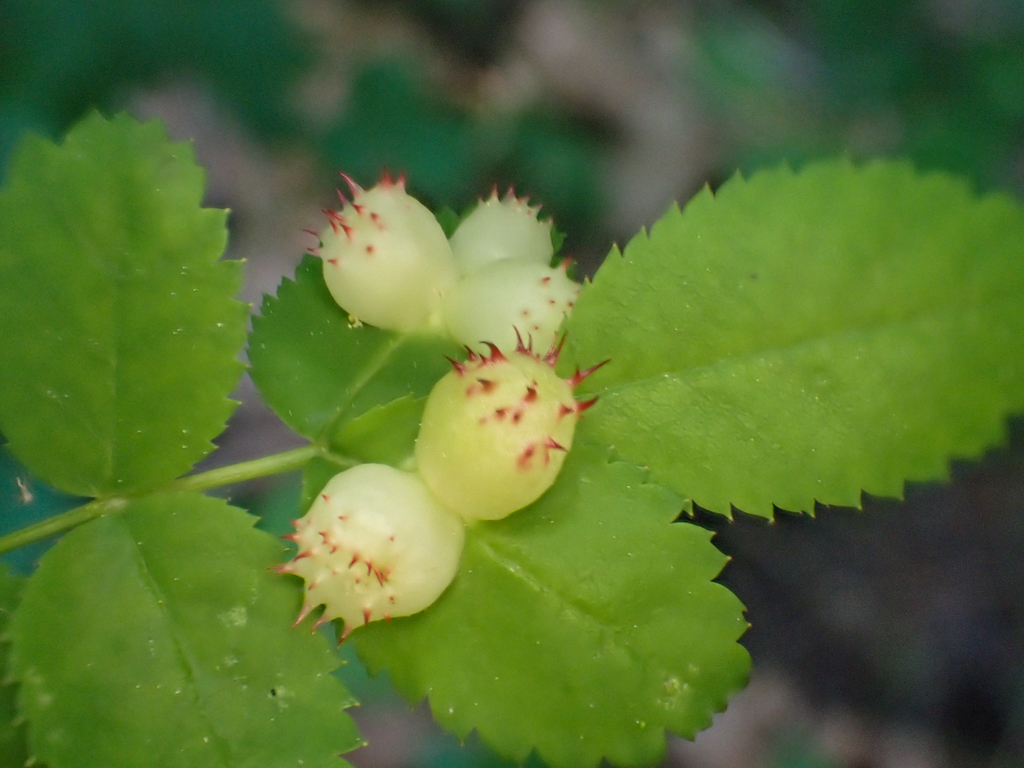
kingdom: Animalia
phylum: Arthropoda
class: Insecta
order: Hymenoptera
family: Cynipidae
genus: Diplolepis
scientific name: Diplolepis polita
